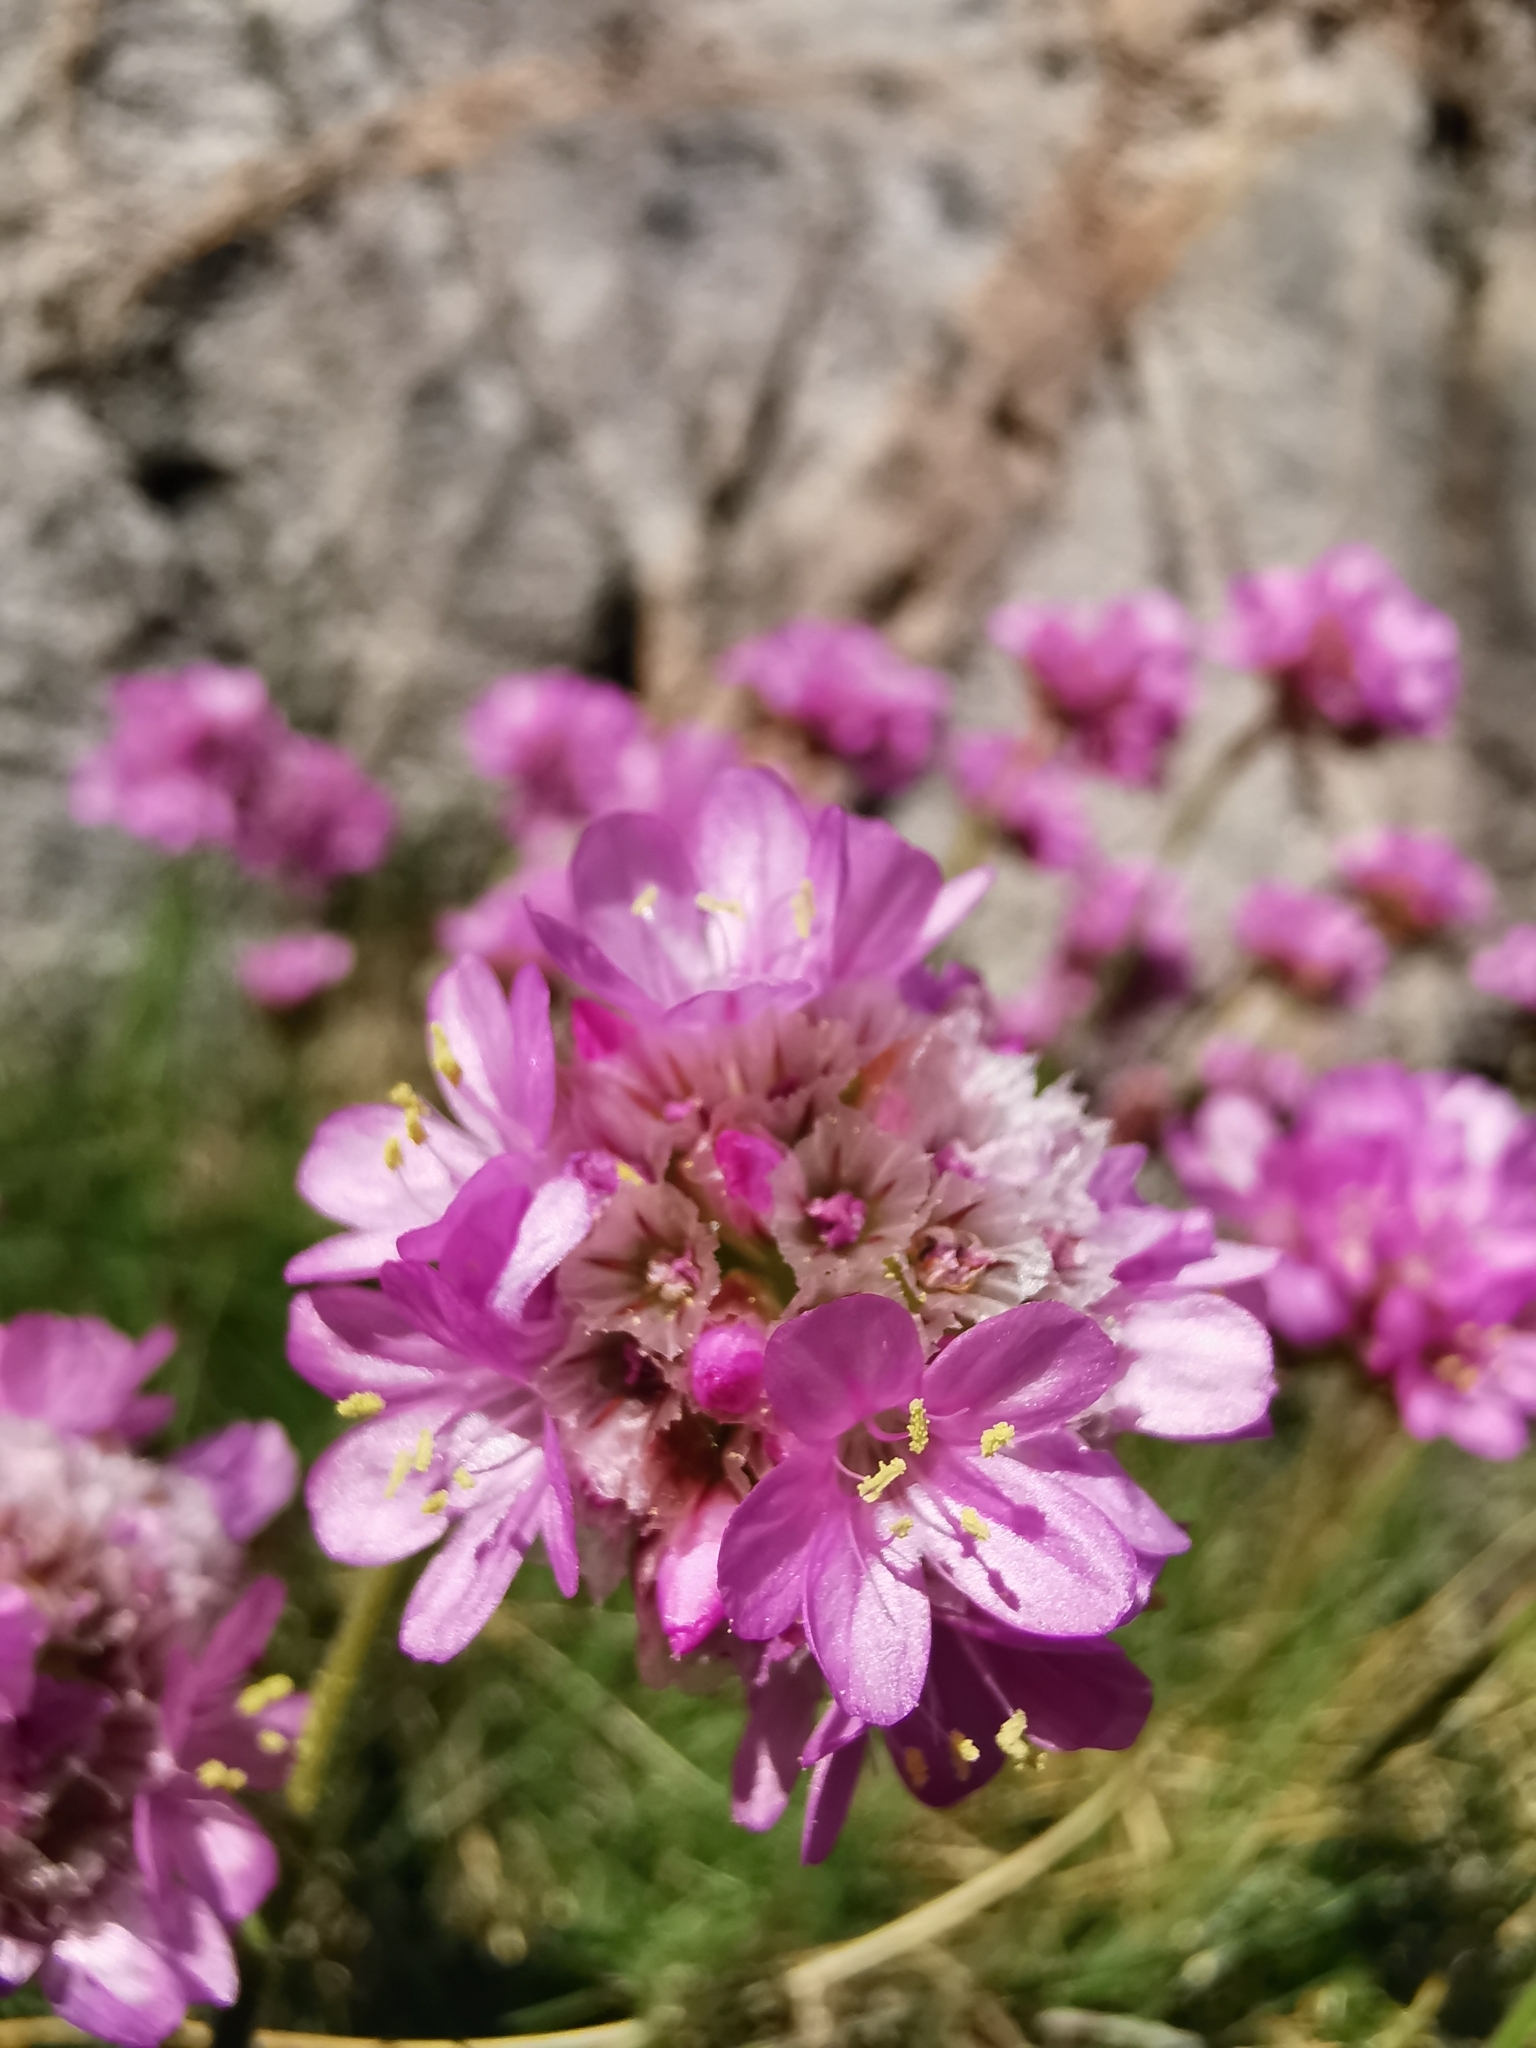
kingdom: Plantae
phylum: Tracheophyta
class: Magnoliopsida
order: Caryophyllales
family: Plumbaginaceae
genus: Armeria
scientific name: Armeria maritima
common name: Thrift
